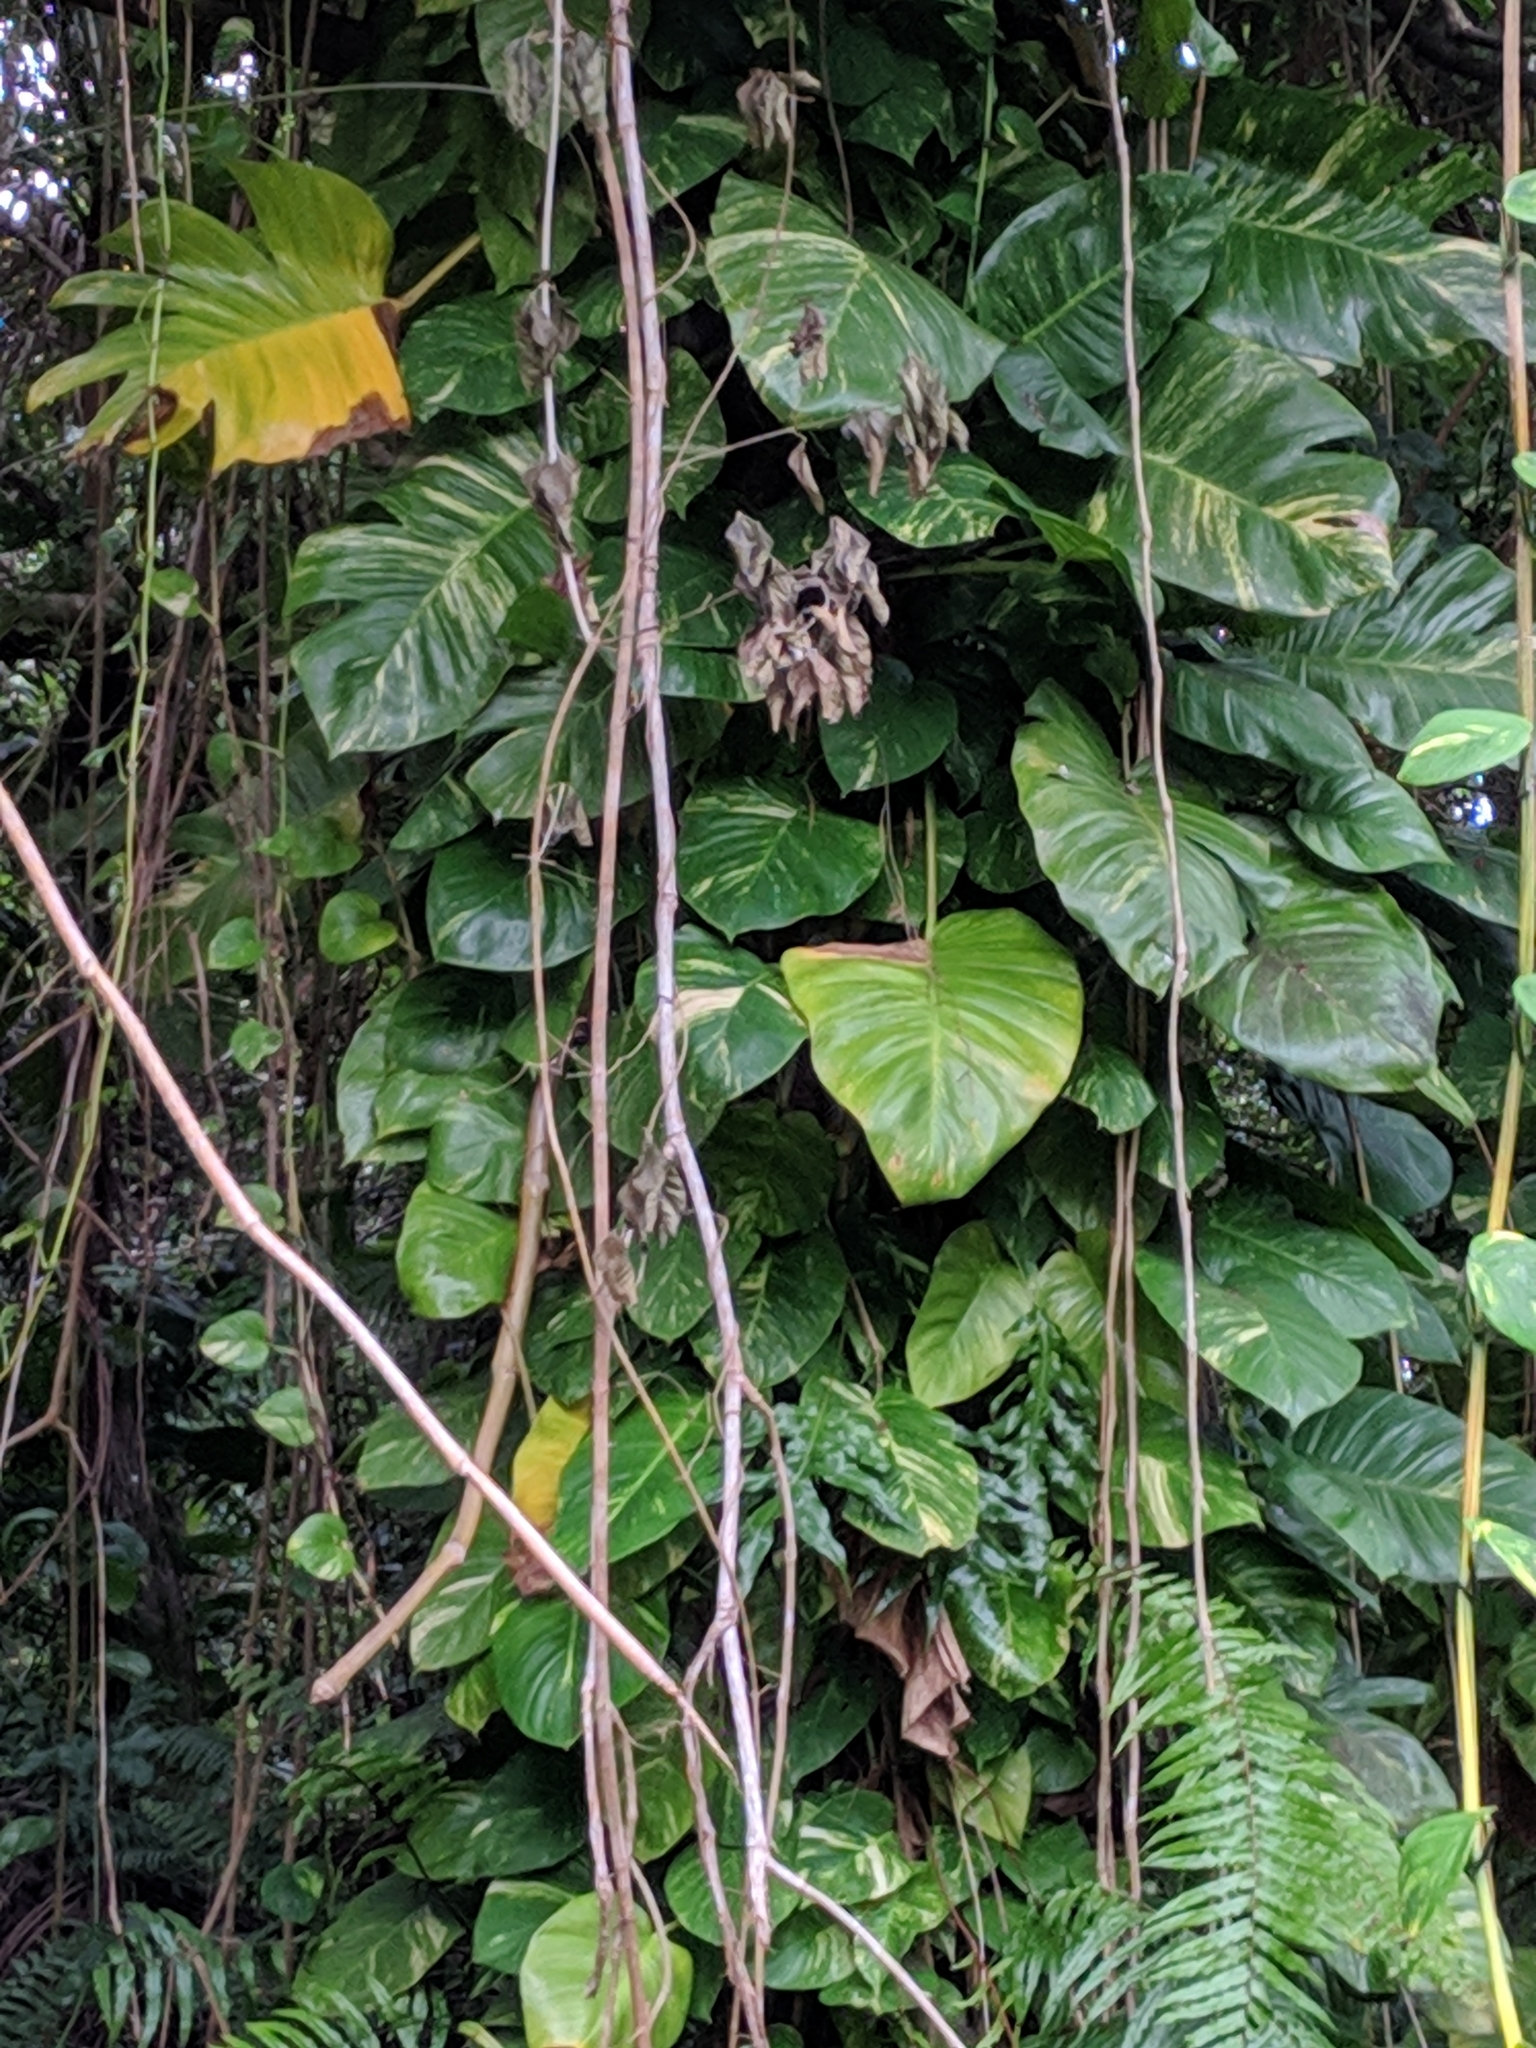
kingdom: Plantae
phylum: Tracheophyta
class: Liliopsida
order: Alismatales
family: Araceae
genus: Epipremnum
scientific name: Epipremnum aureum
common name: Golden hunter's-robe
